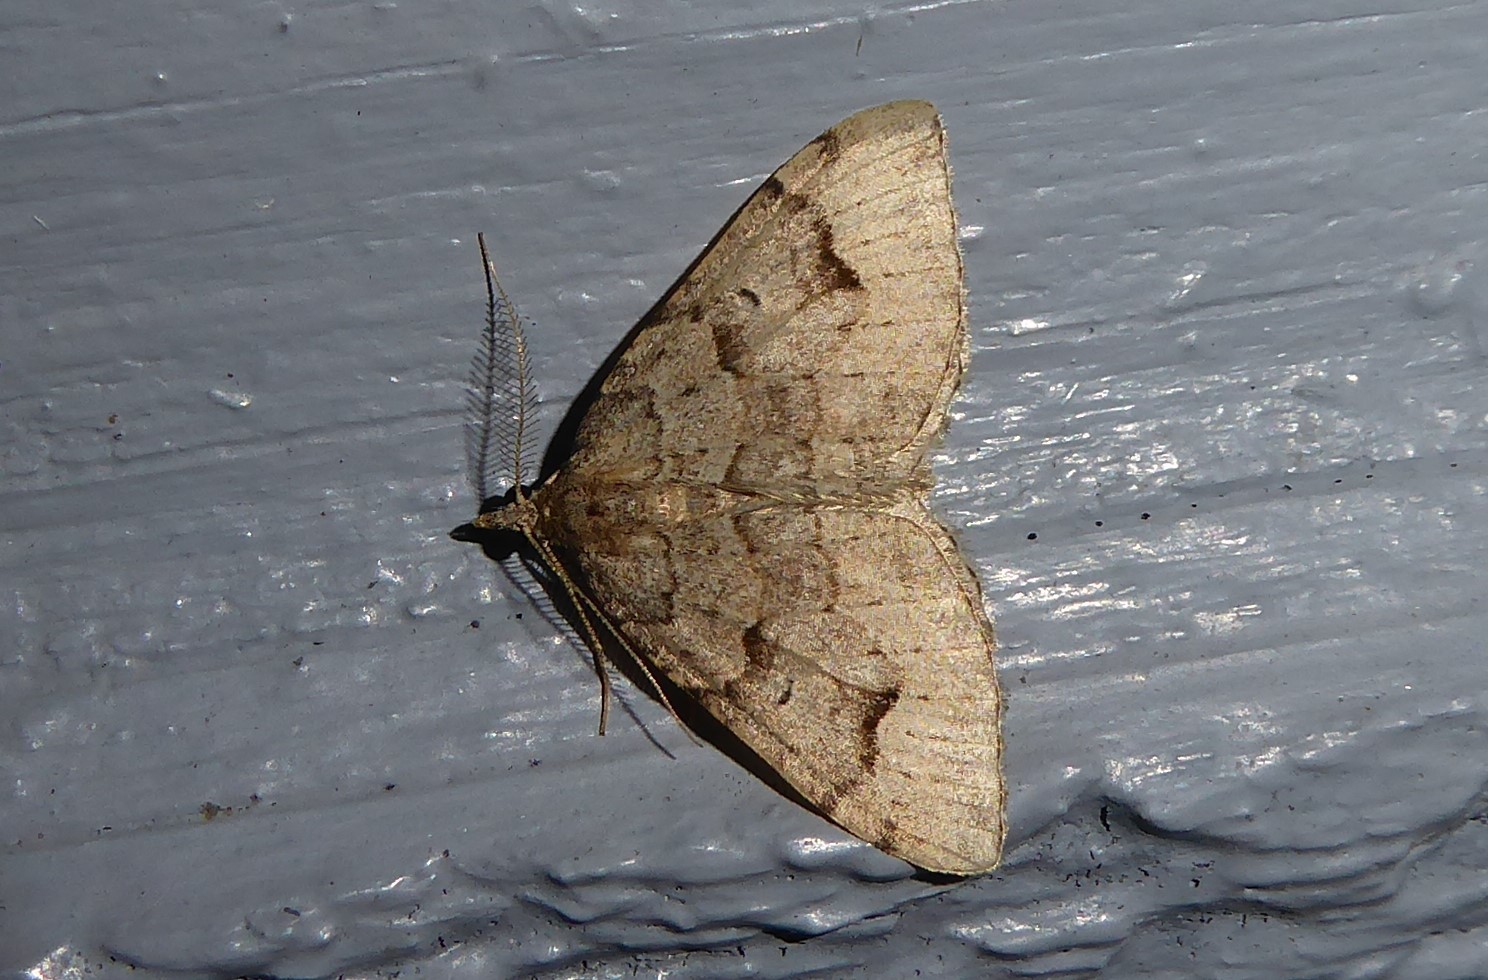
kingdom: Animalia
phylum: Arthropoda
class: Insecta
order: Lepidoptera
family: Geometridae
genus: Epyaxa
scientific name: Epyaxa rosearia
